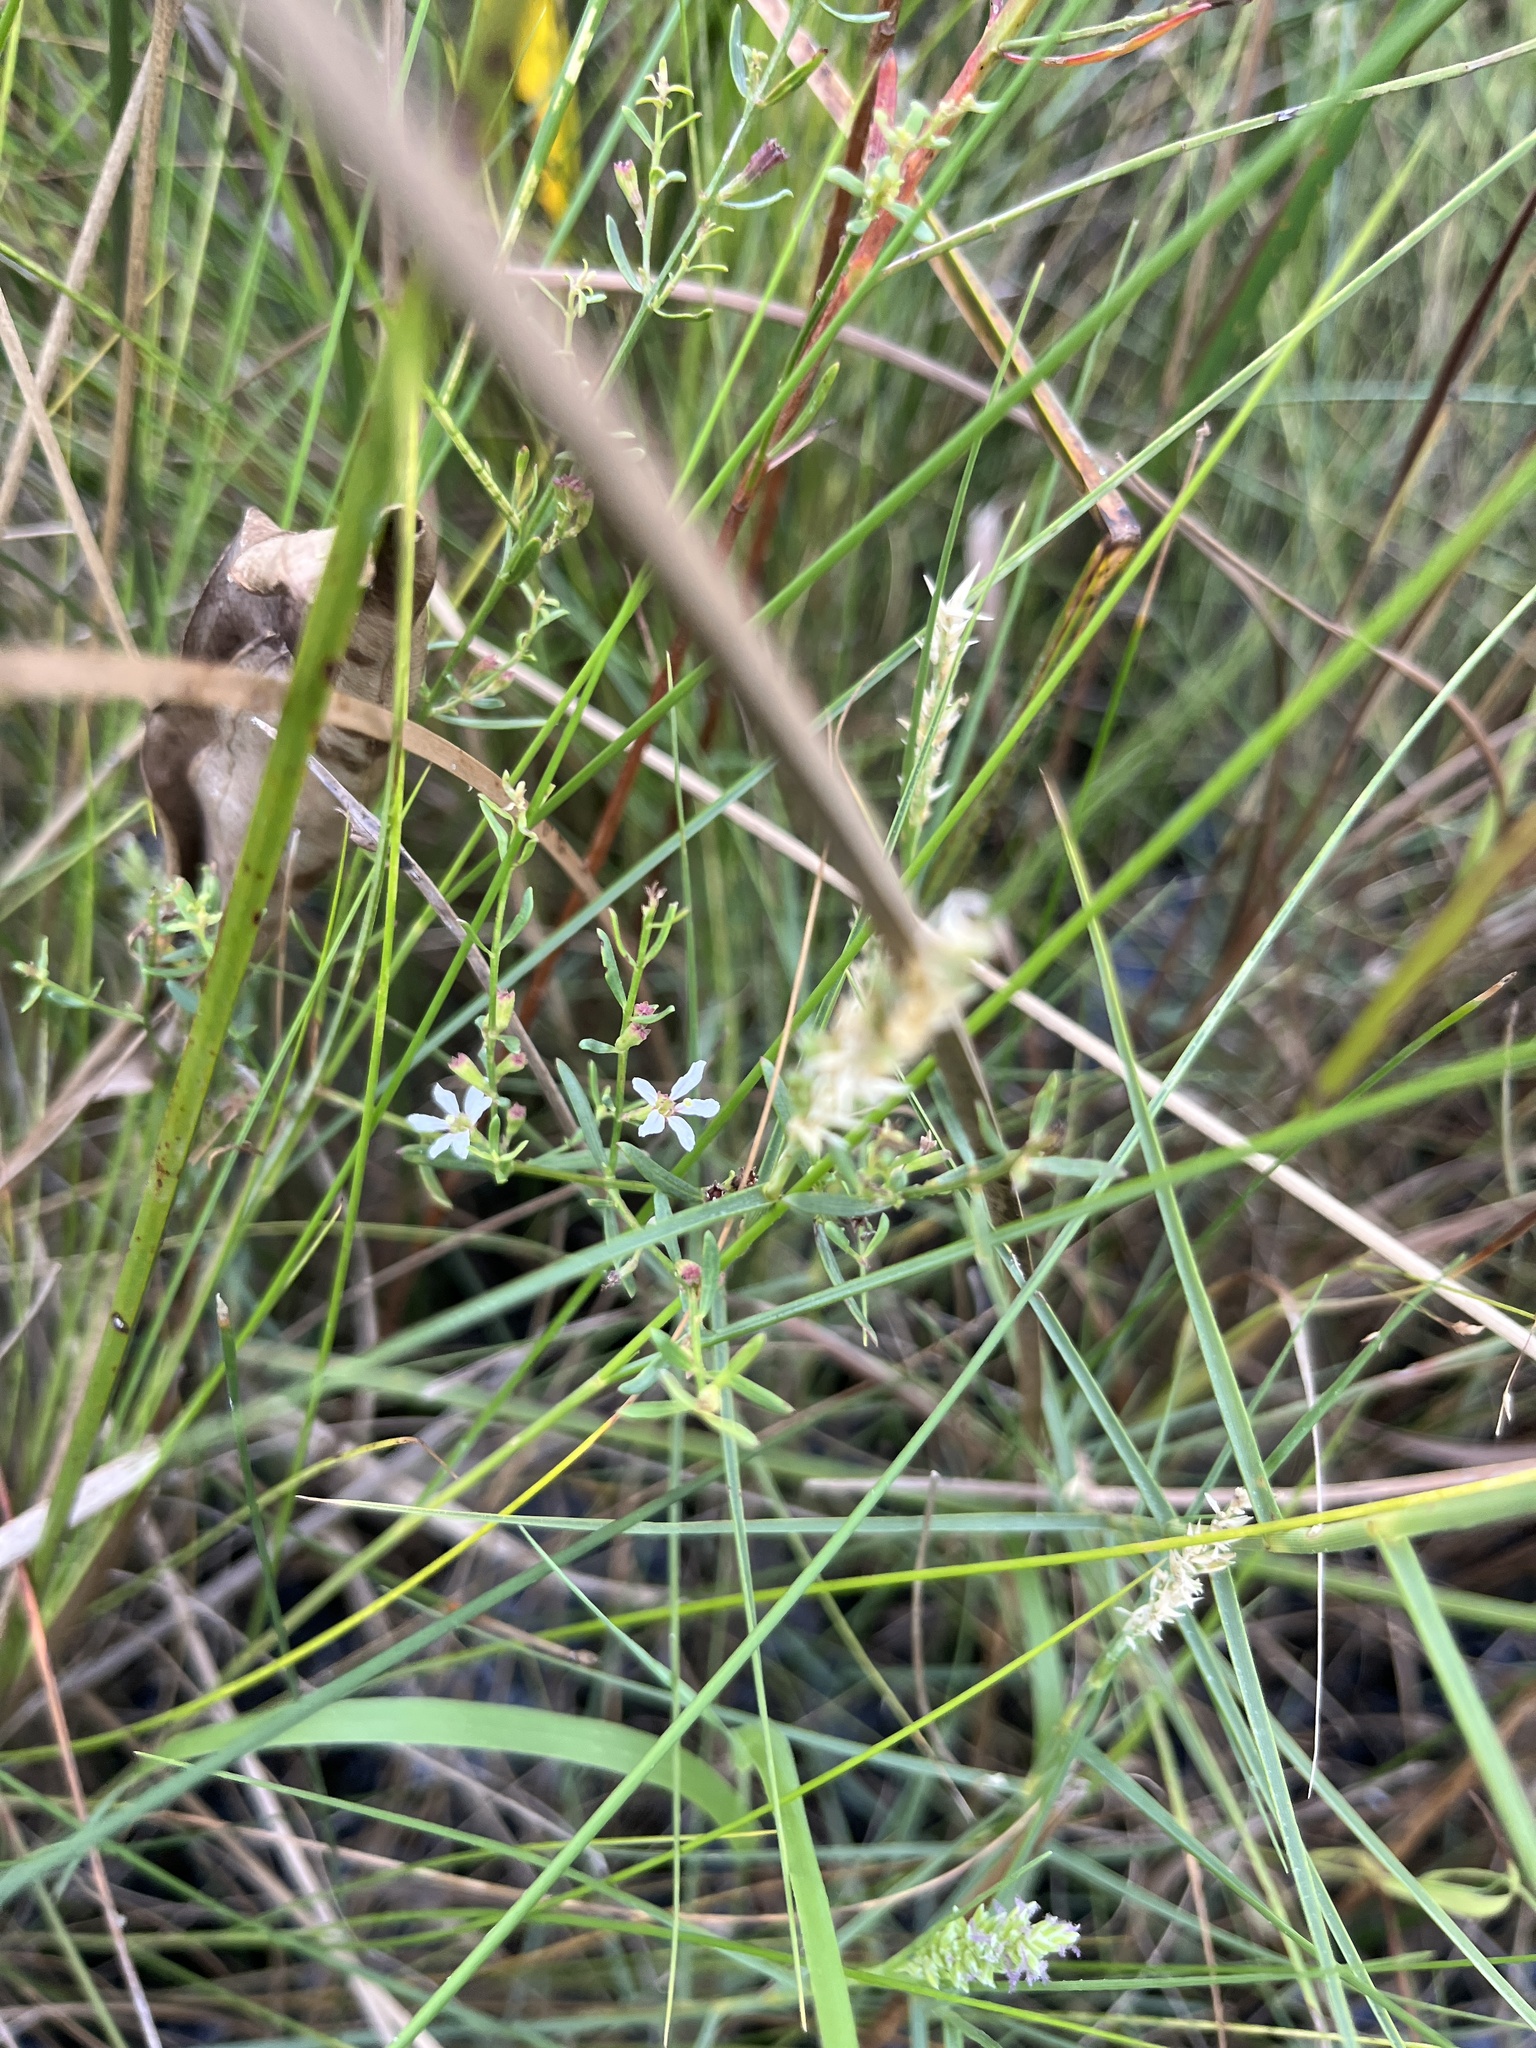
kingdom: Plantae
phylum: Tracheophyta
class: Magnoliopsida
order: Myrtales
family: Lythraceae
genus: Lythrum
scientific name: Lythrum lineare
